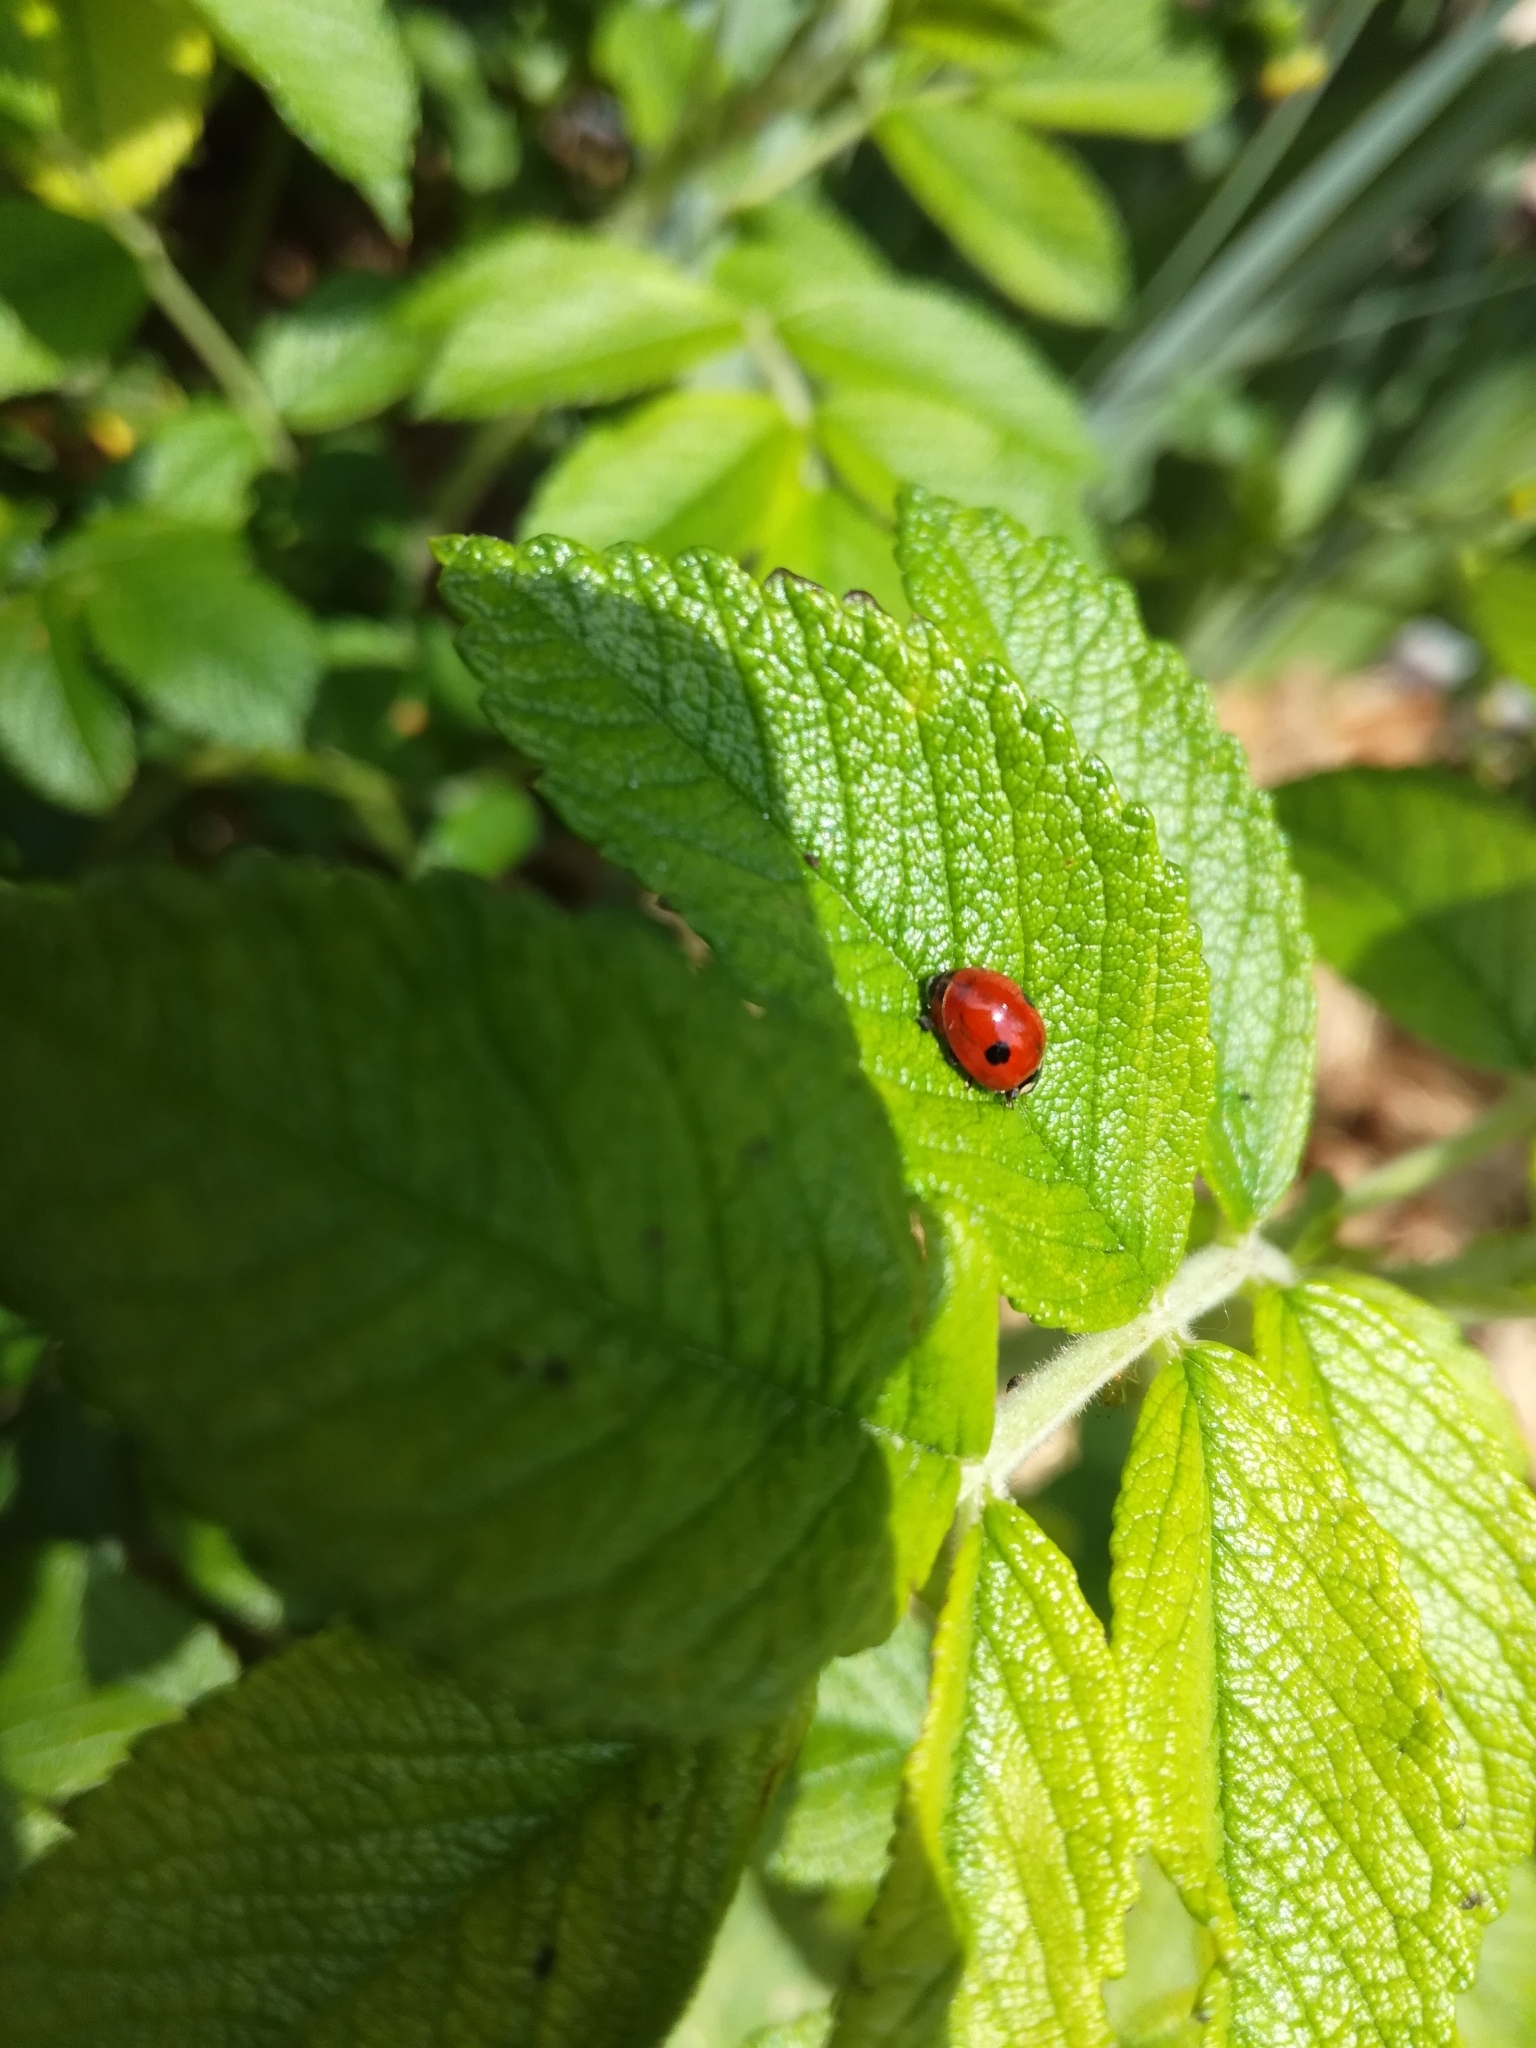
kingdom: Animalia
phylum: Arthropoda
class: Insecta
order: Coleoptera
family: Coccinellidae
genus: Adalia
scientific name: Adalia bipunctata
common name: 2-spot ladybird
